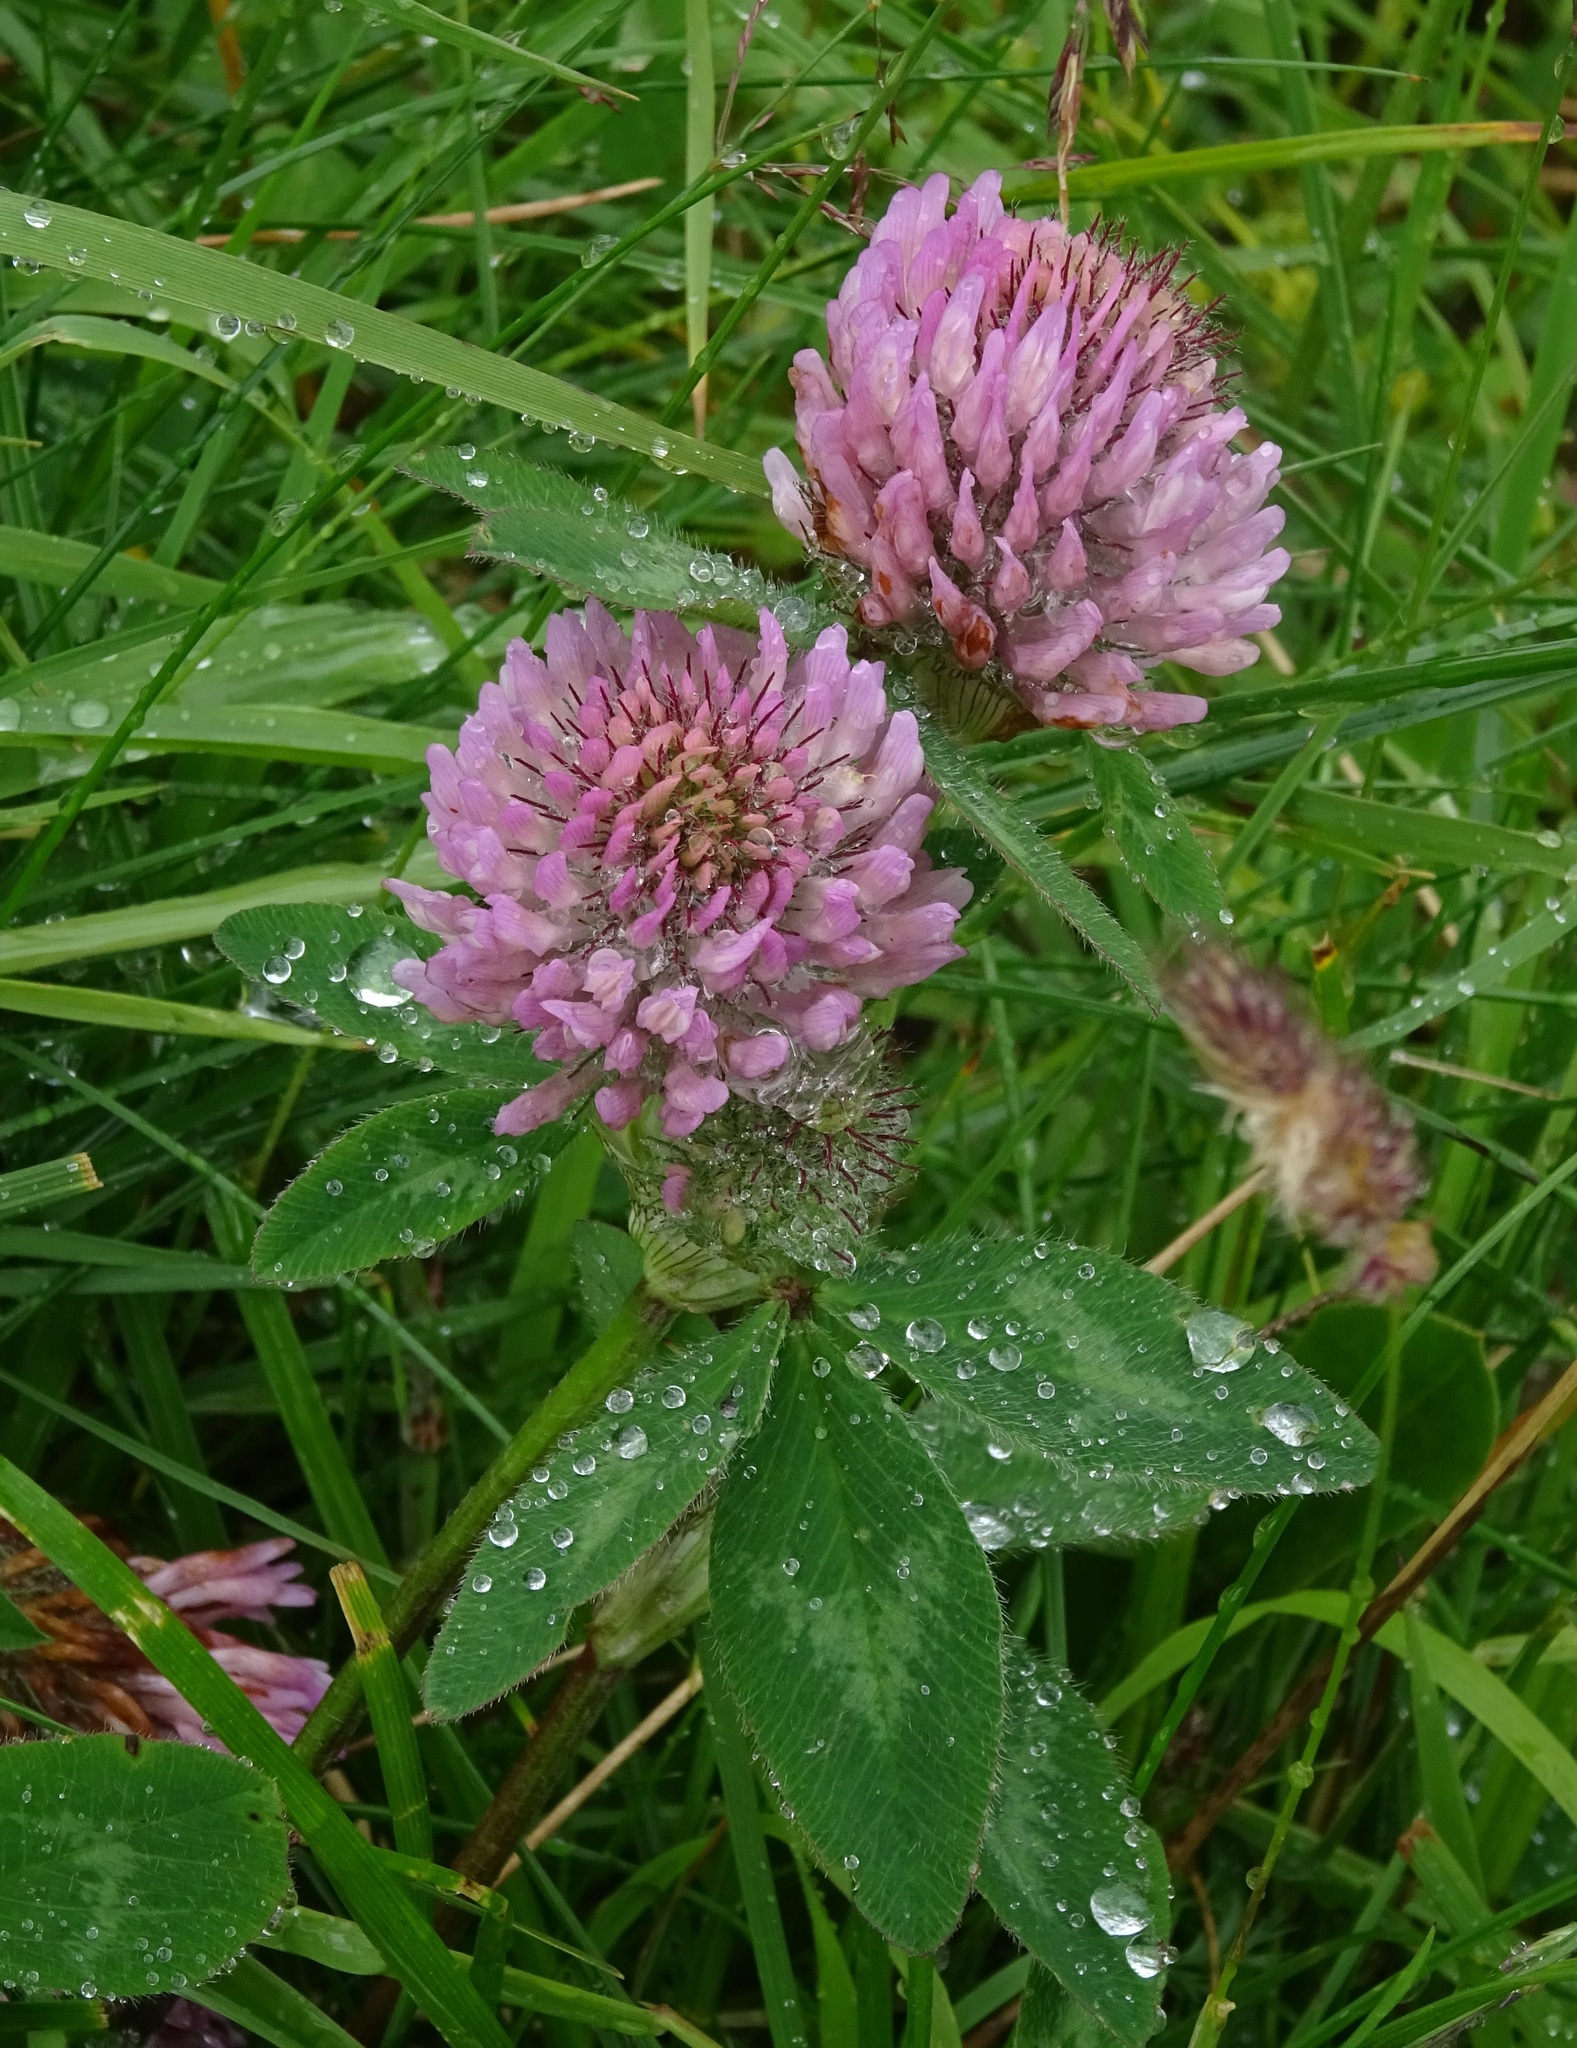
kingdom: Plantae
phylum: Tracheophyta
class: Magnoliopsida
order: Fabales
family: Fabaceae
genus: Trifolium
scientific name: Trifolium pratense
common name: Red clover
